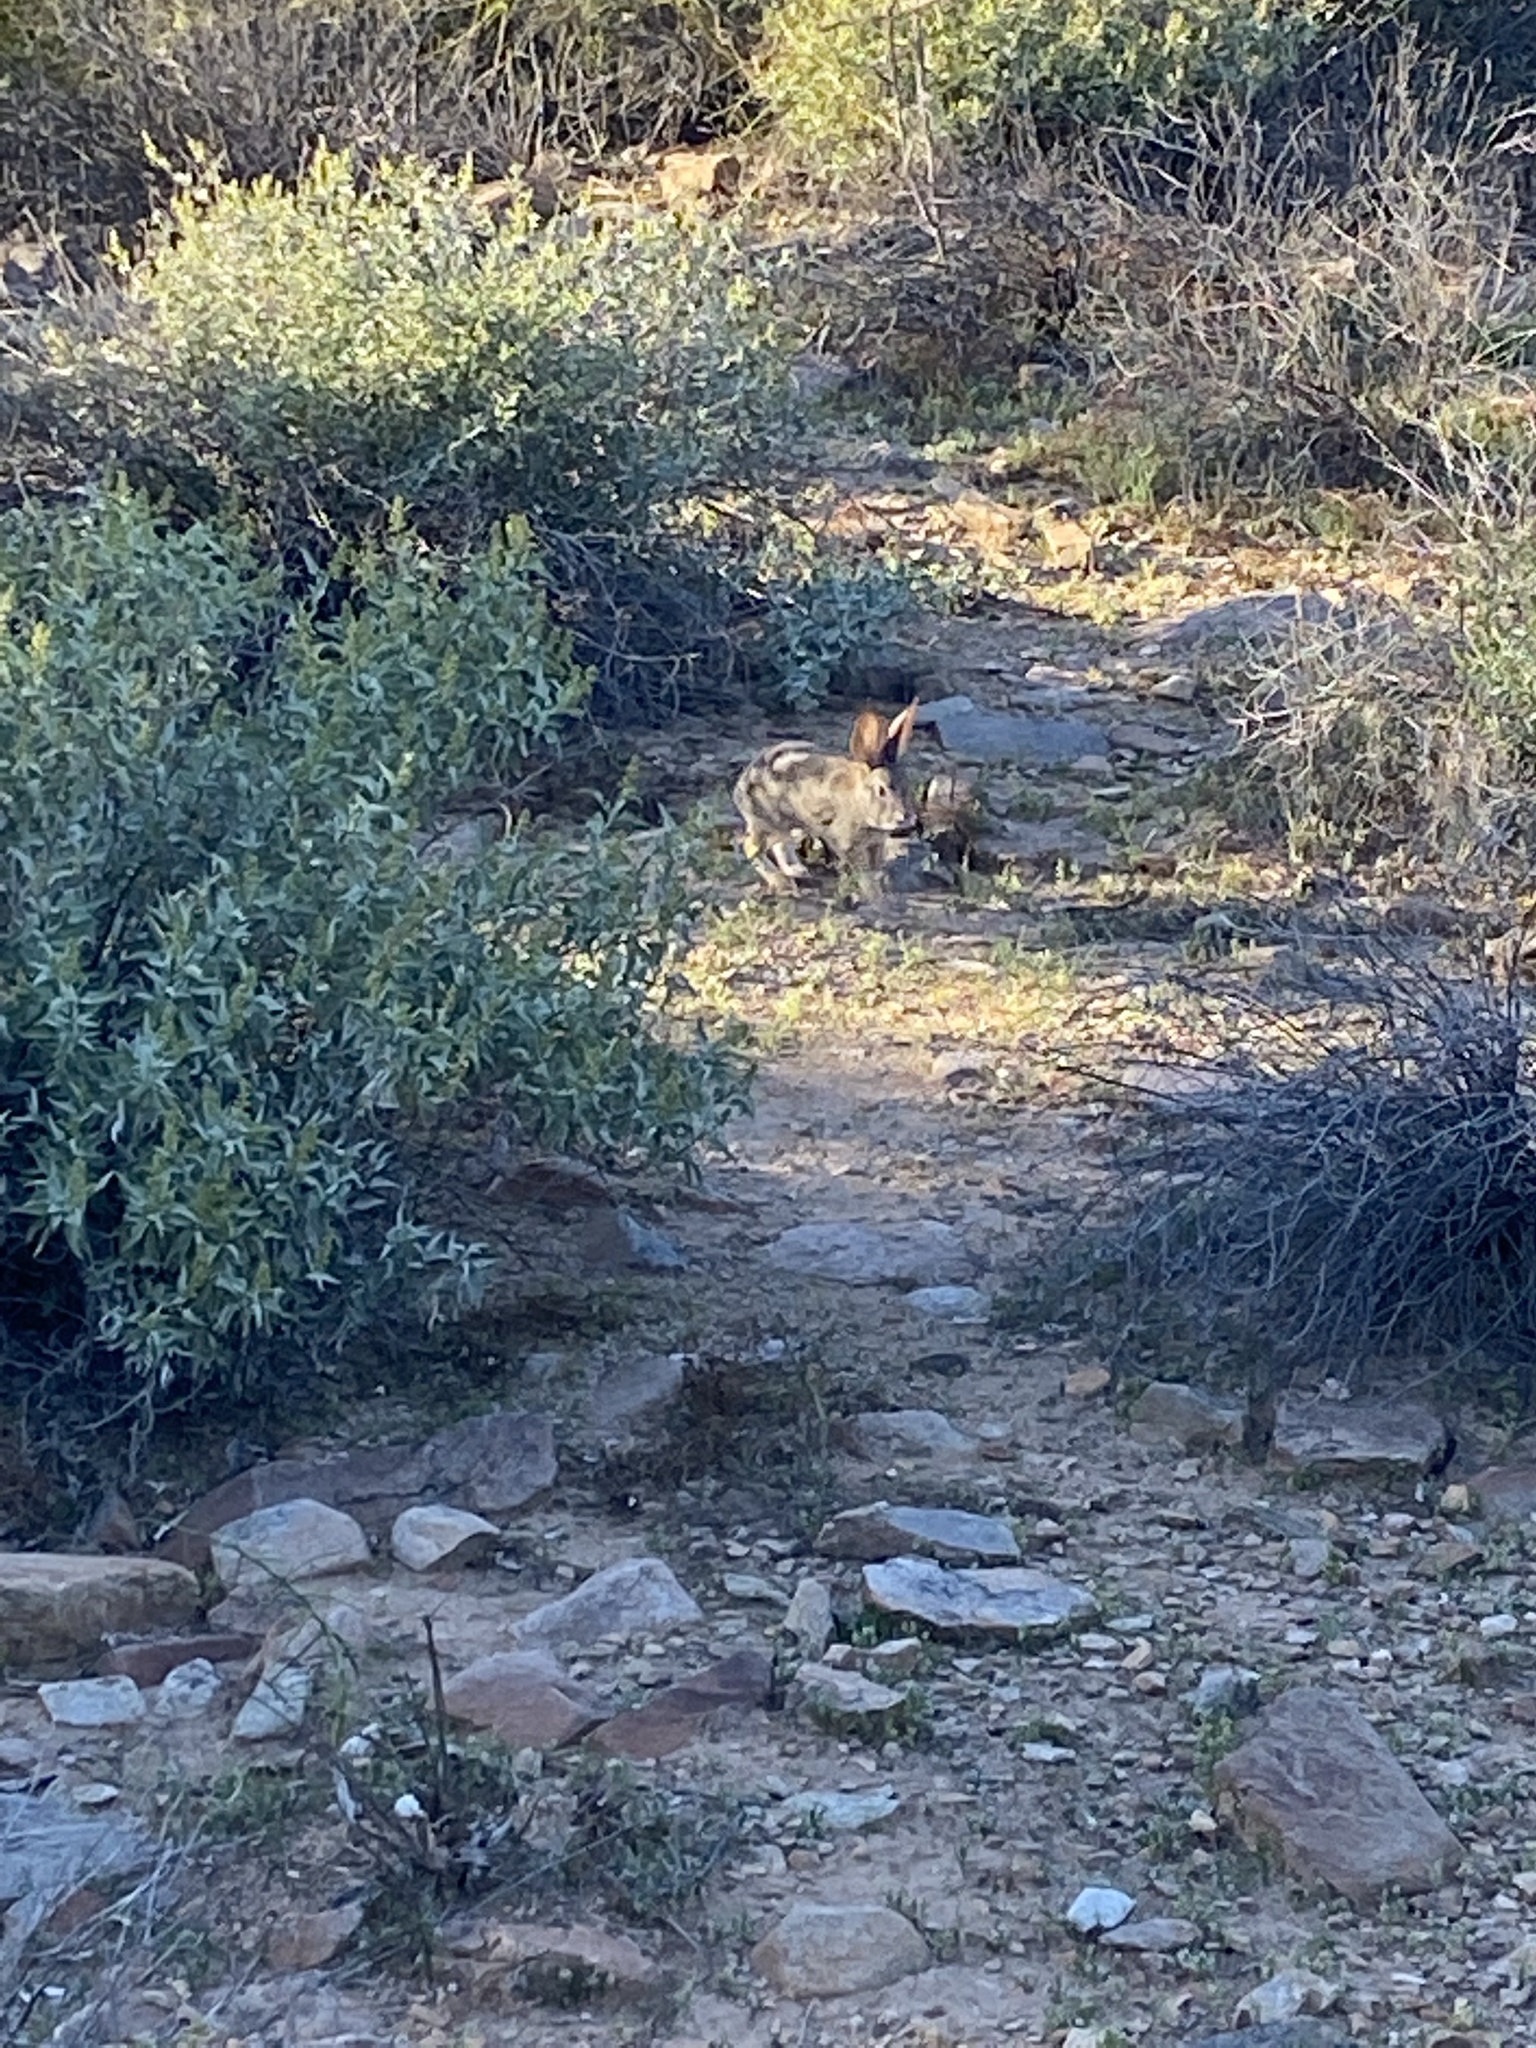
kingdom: Animalia
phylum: Chordata
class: Mammalia
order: Lagomorpha
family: Leporidae
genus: Sylvilagus
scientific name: Sylvilagus audubonii
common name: Desert cottontail
